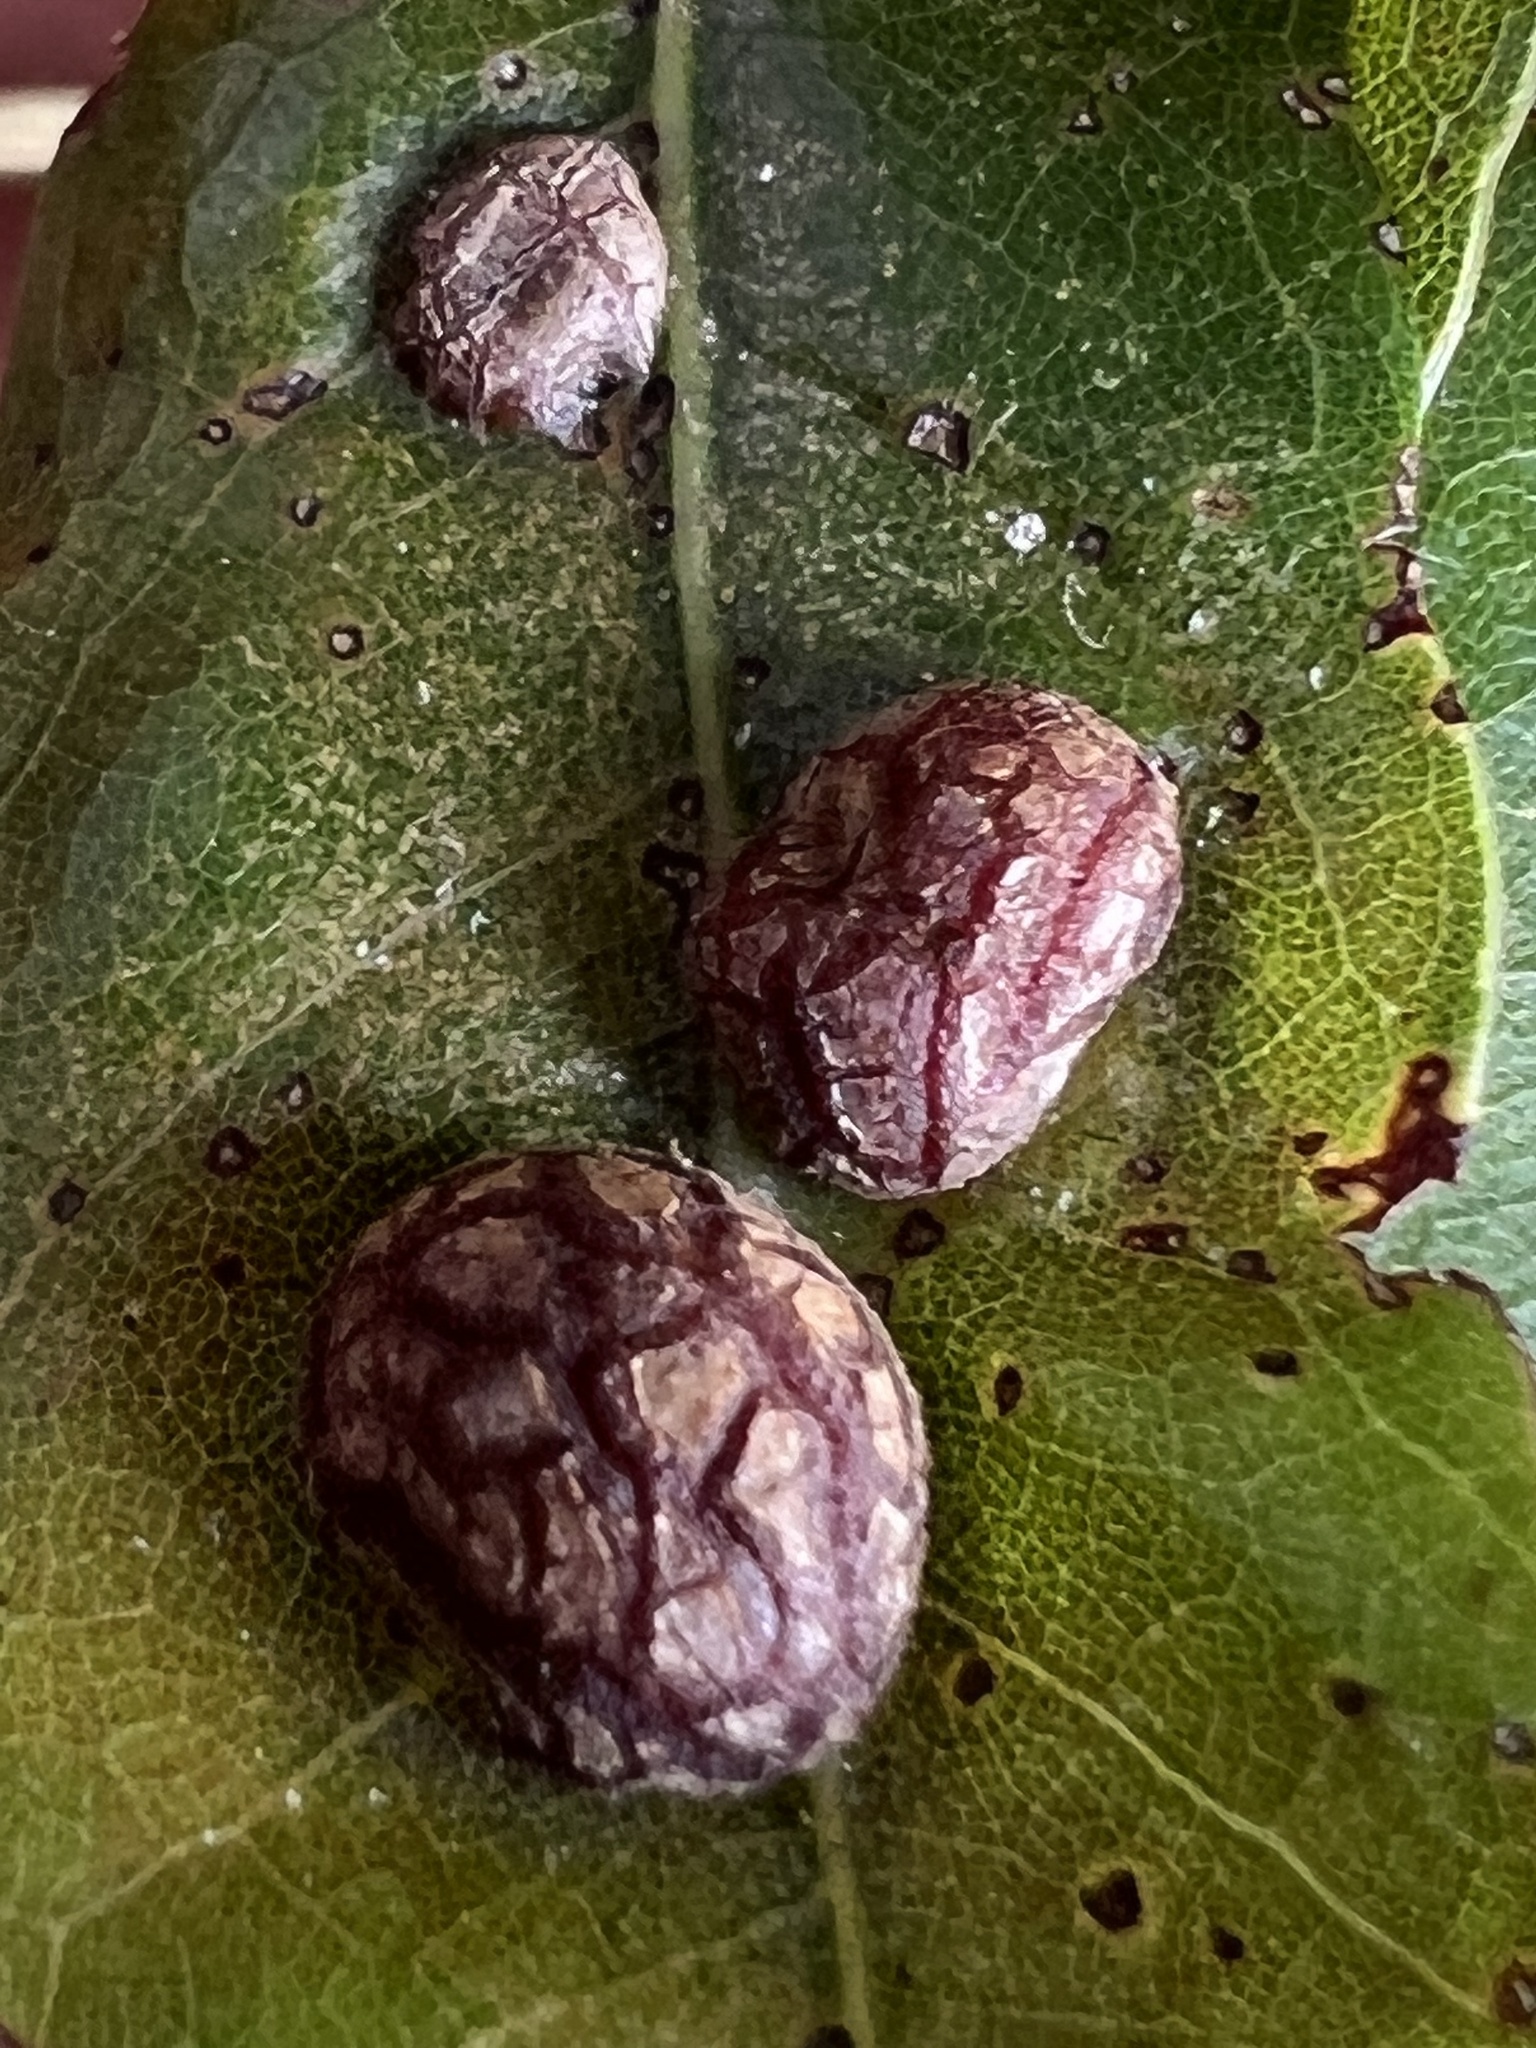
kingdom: Animalia
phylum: Arthropoda
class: Insecta
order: Diptera
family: Cecidomyiidae
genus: Polystepha
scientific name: Polystepha pilulae
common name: Oak leaf gall midge
